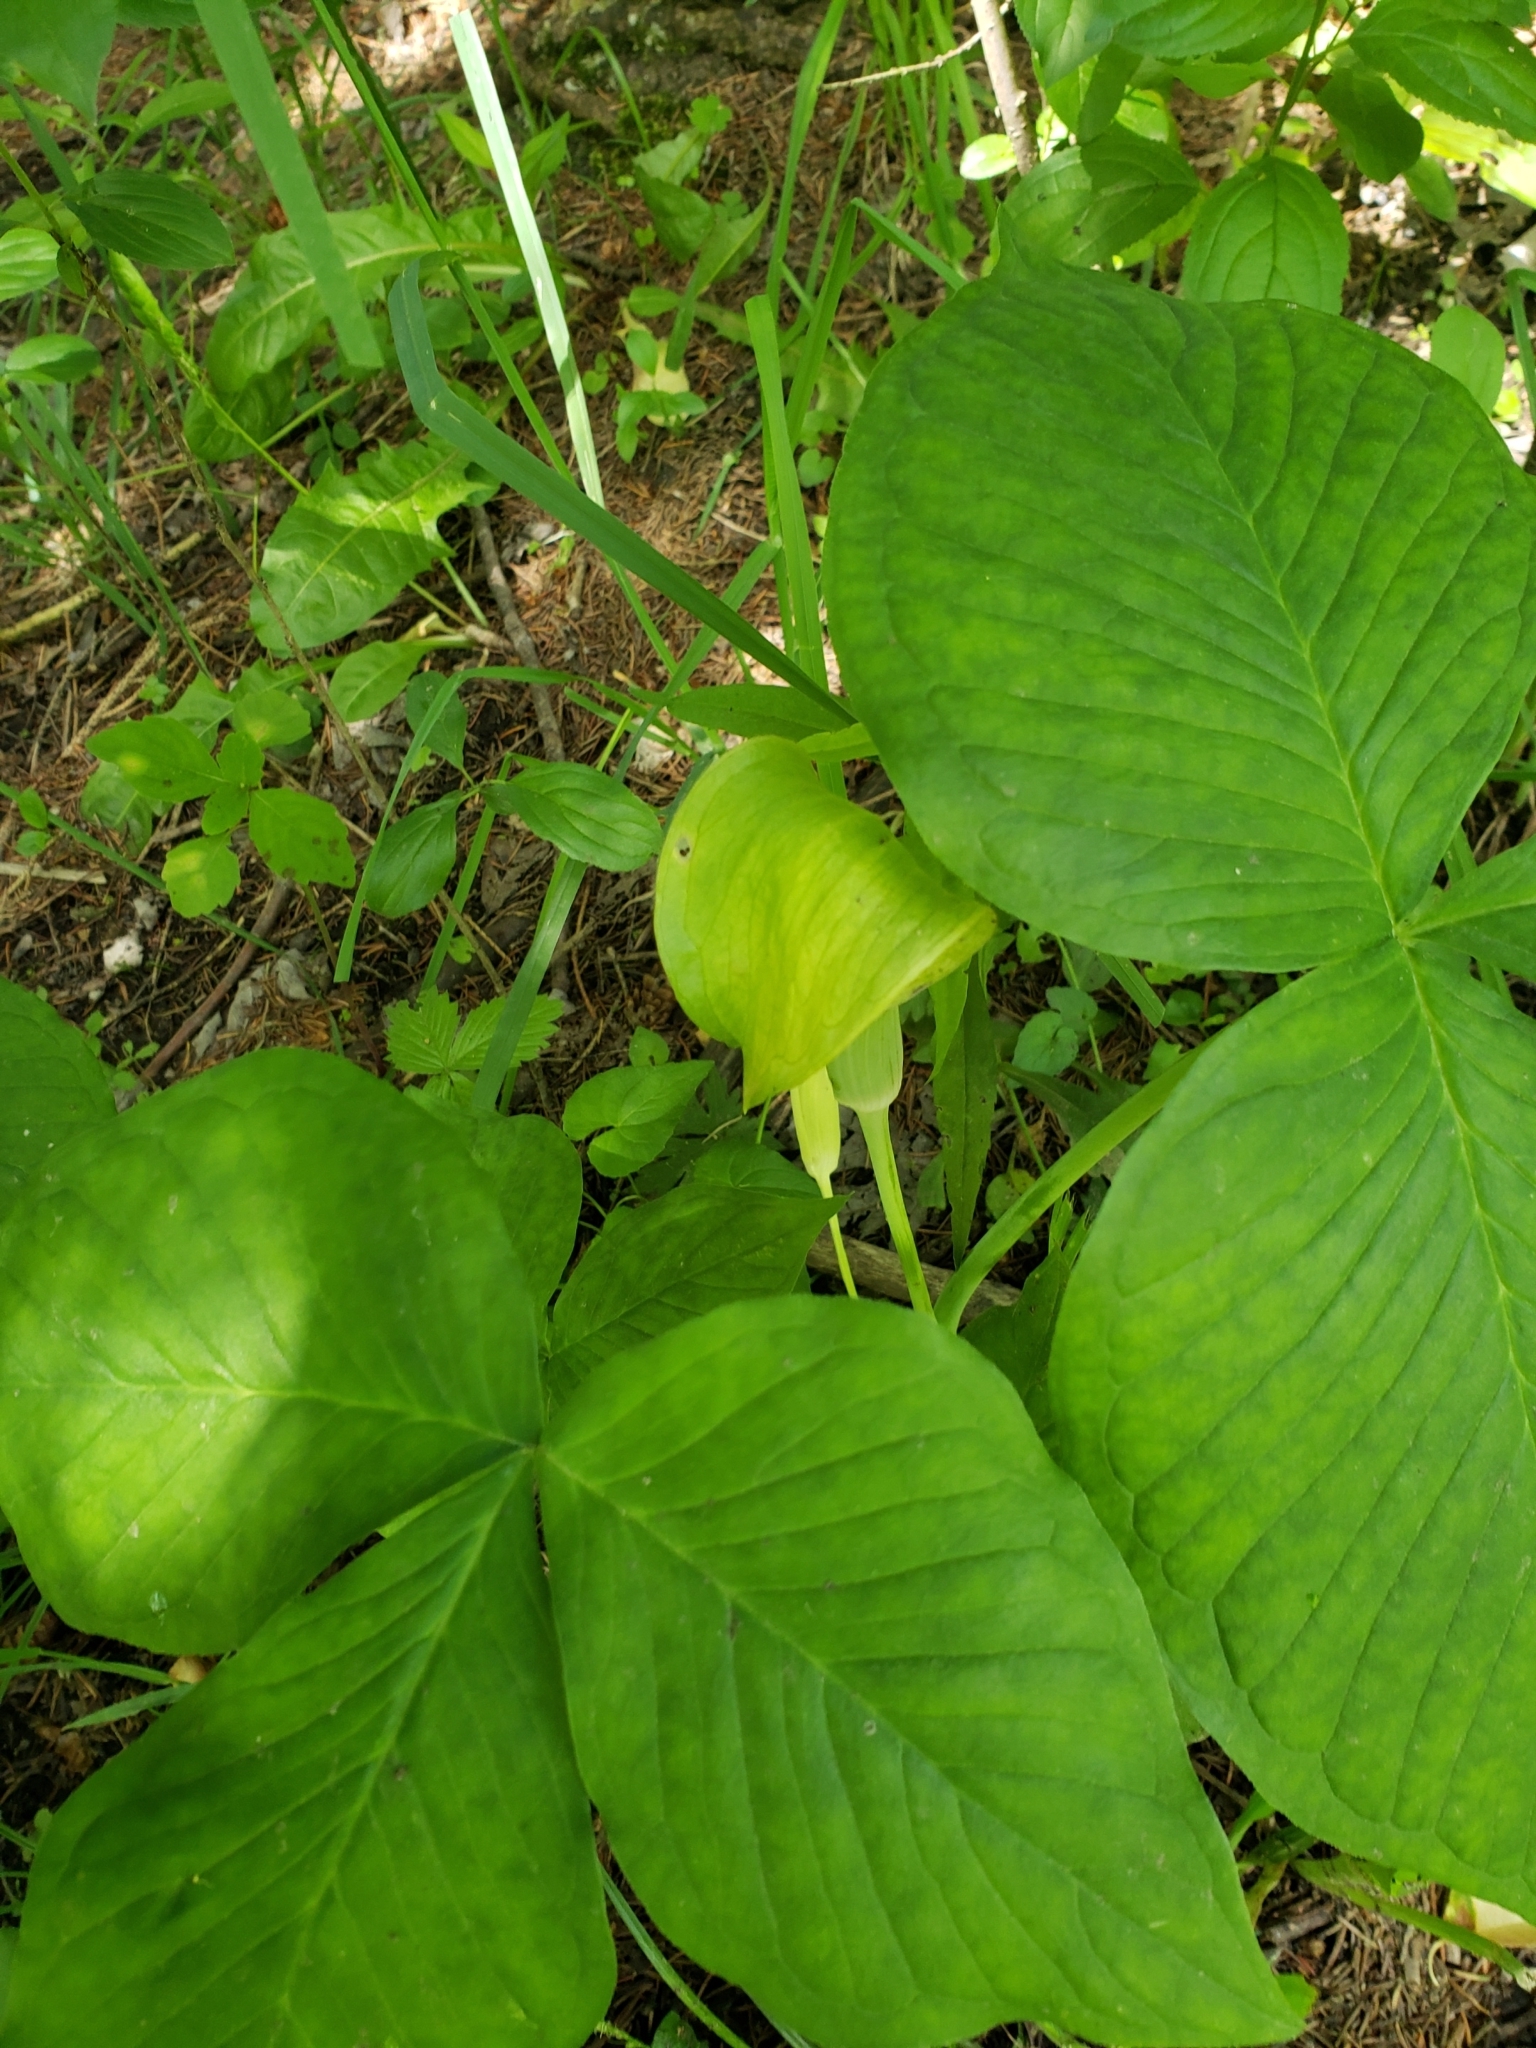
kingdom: Plantae
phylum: Tracheophyta
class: Liliopsida
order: Alismatales
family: Araceae
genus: Arisaema
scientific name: Arisaema triphyllum
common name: Jack-in-the-pulpit
